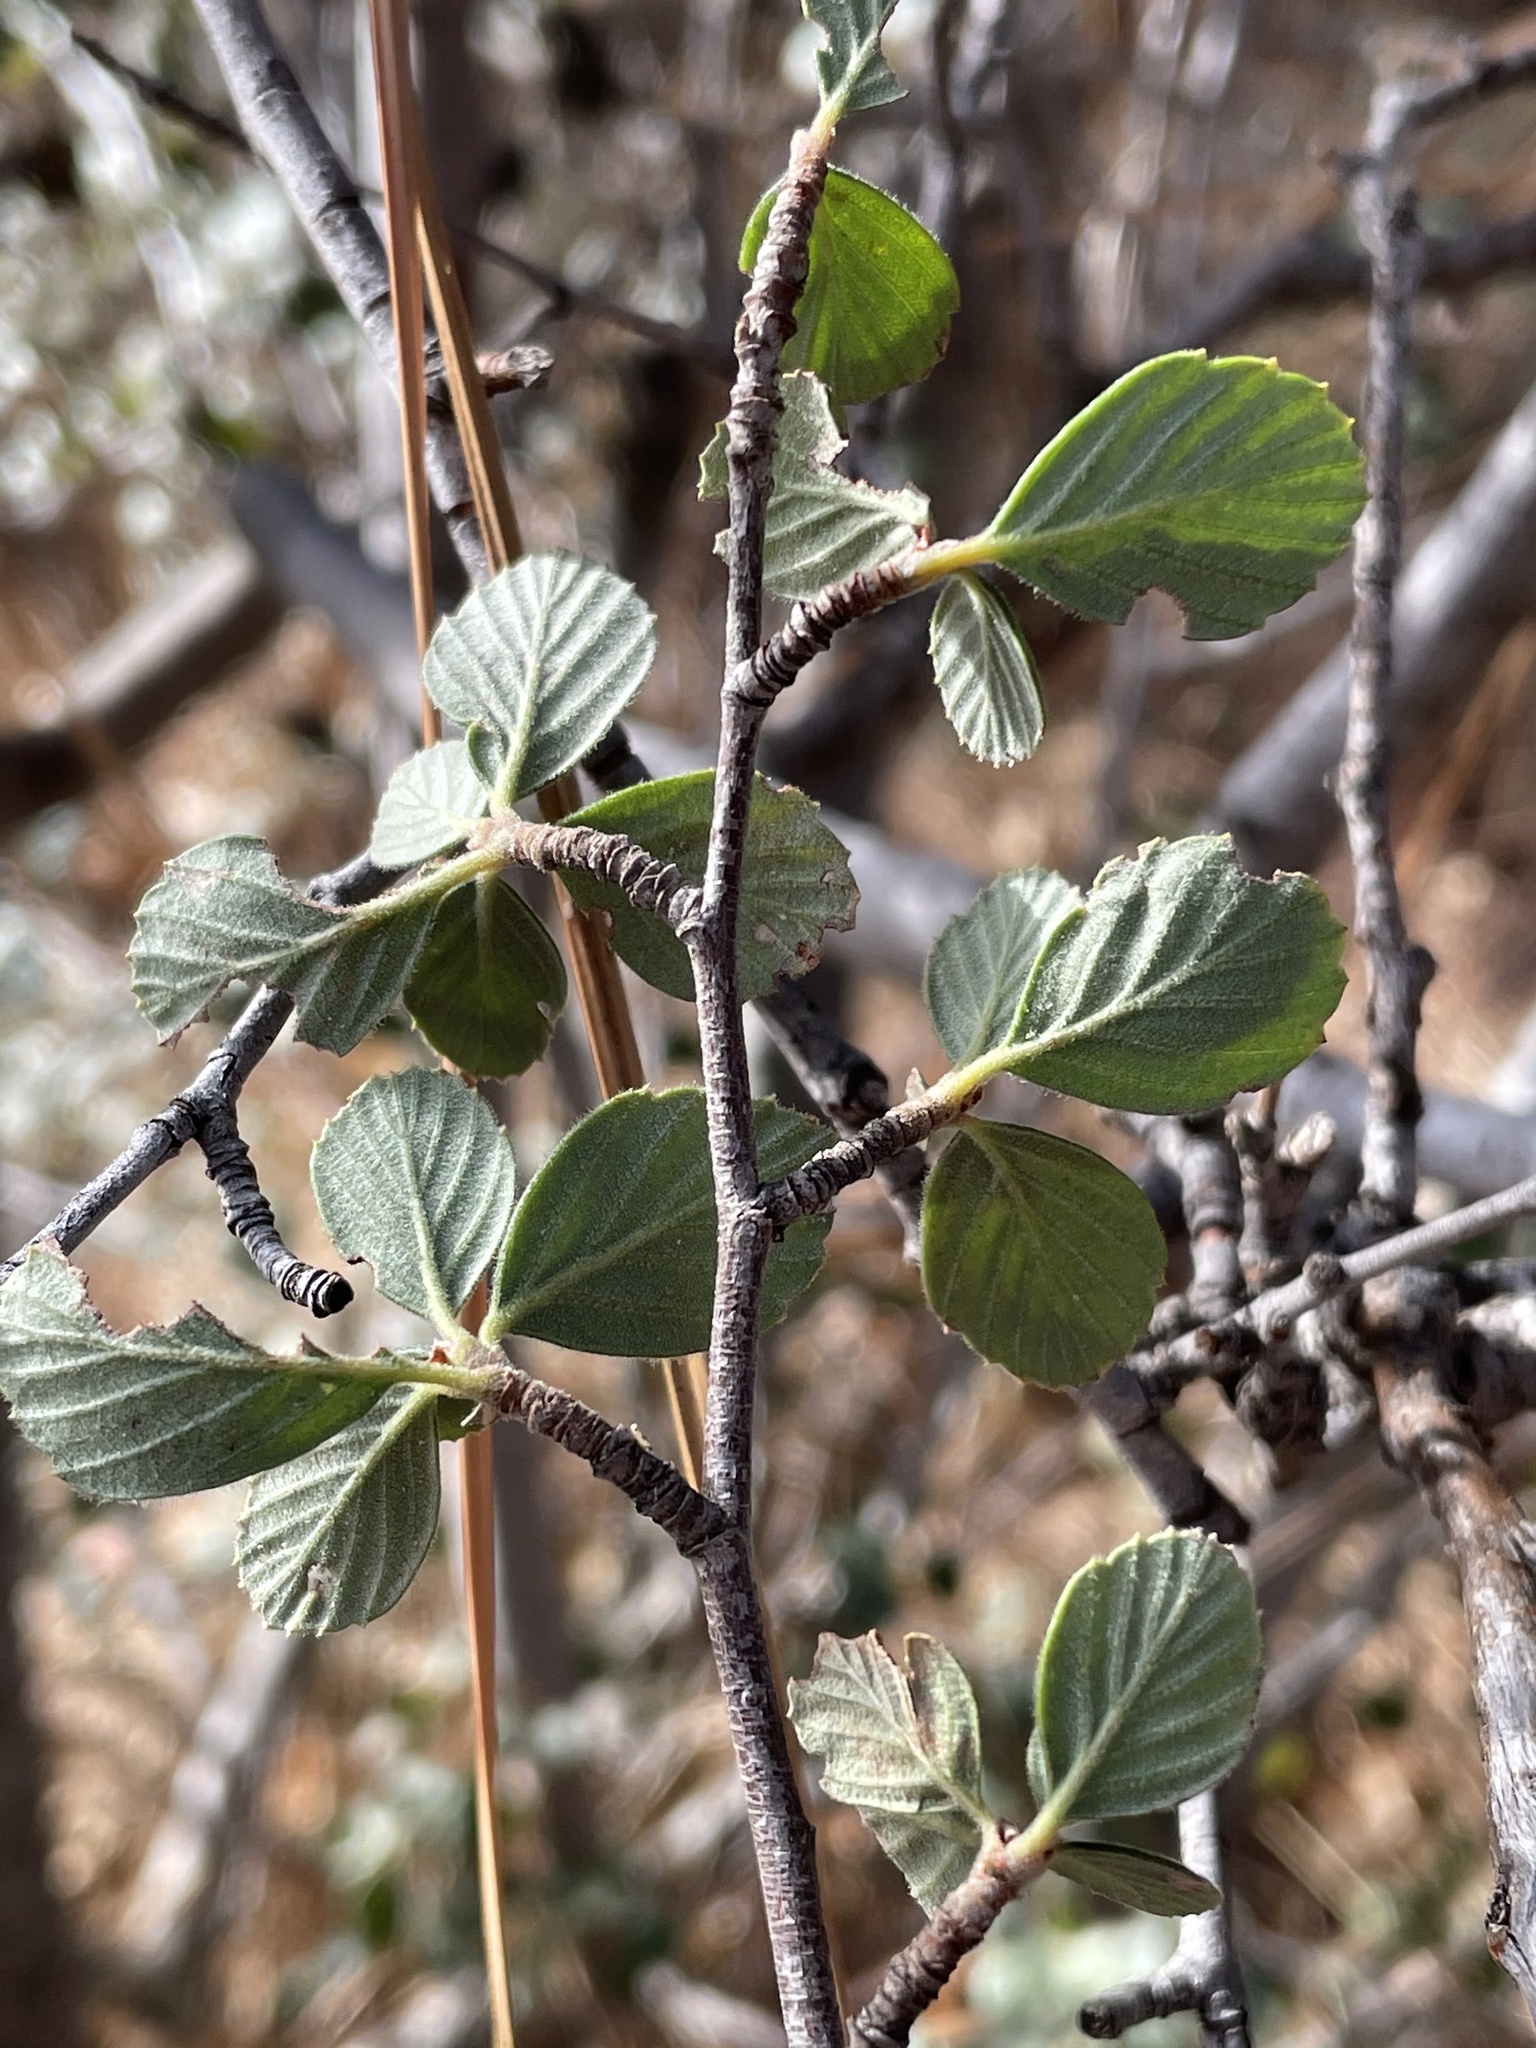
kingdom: Plantae
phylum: Tracheophyta
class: Magnoliopsida
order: Rosales
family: Rosaceae
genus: Cercocarpus
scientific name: Cercocarpus betuloides
